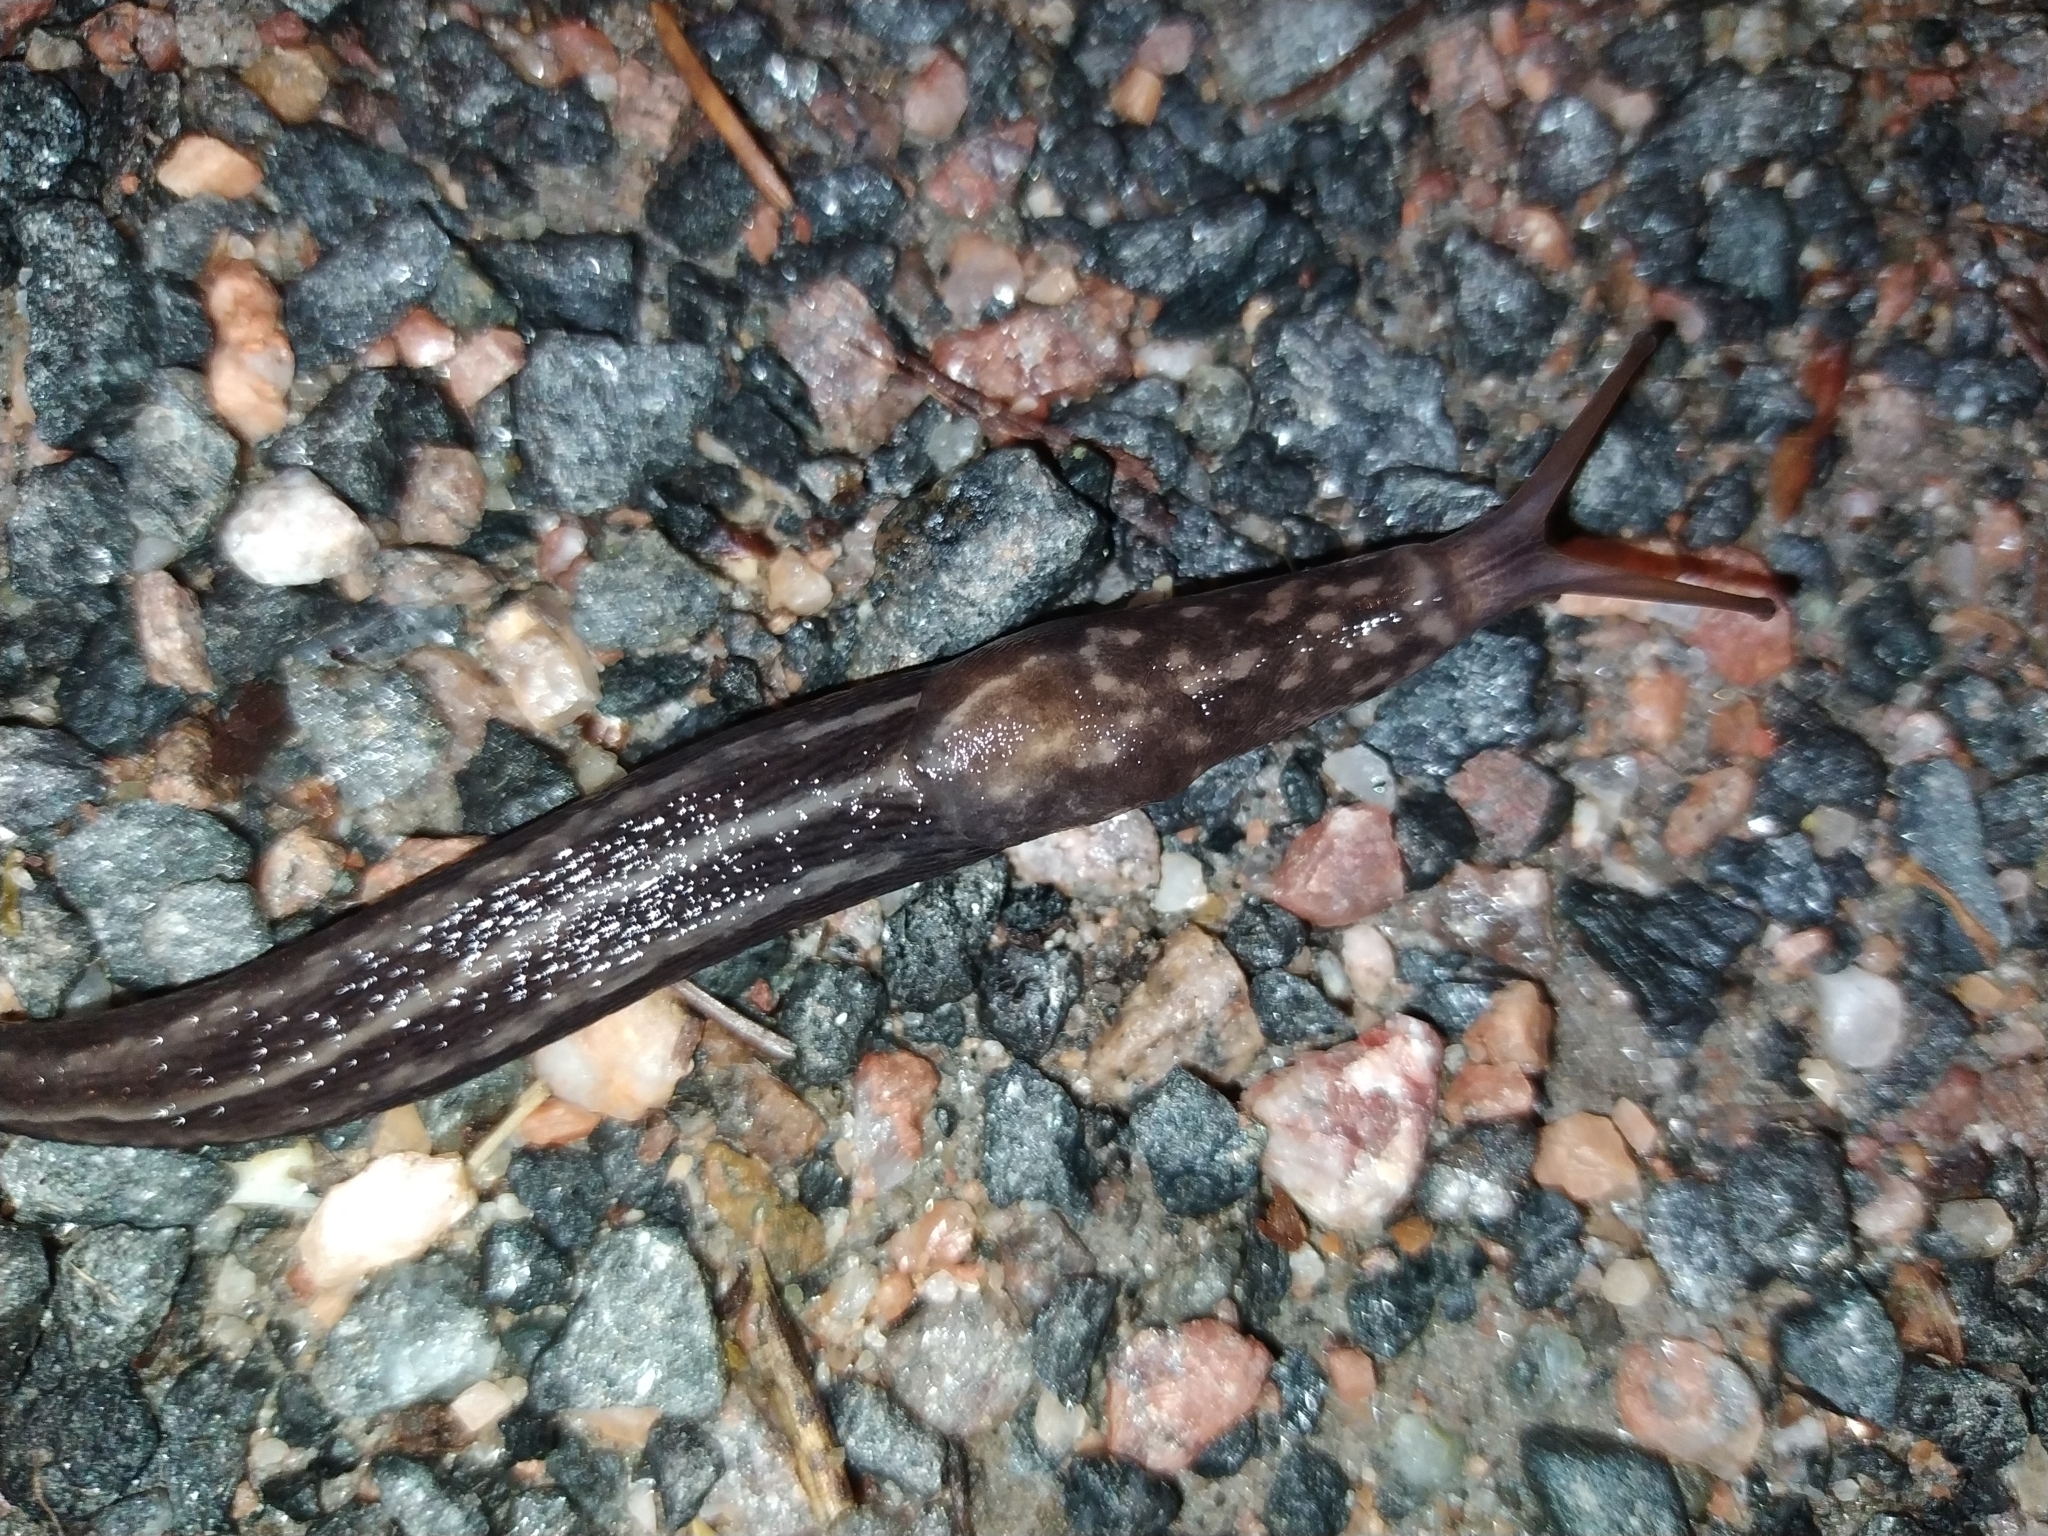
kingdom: Animalia
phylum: Mollusca
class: Gastropoda
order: Stylommatophora
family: Limacidae
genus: Limax
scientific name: Limax maximus
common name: Great grey slug
